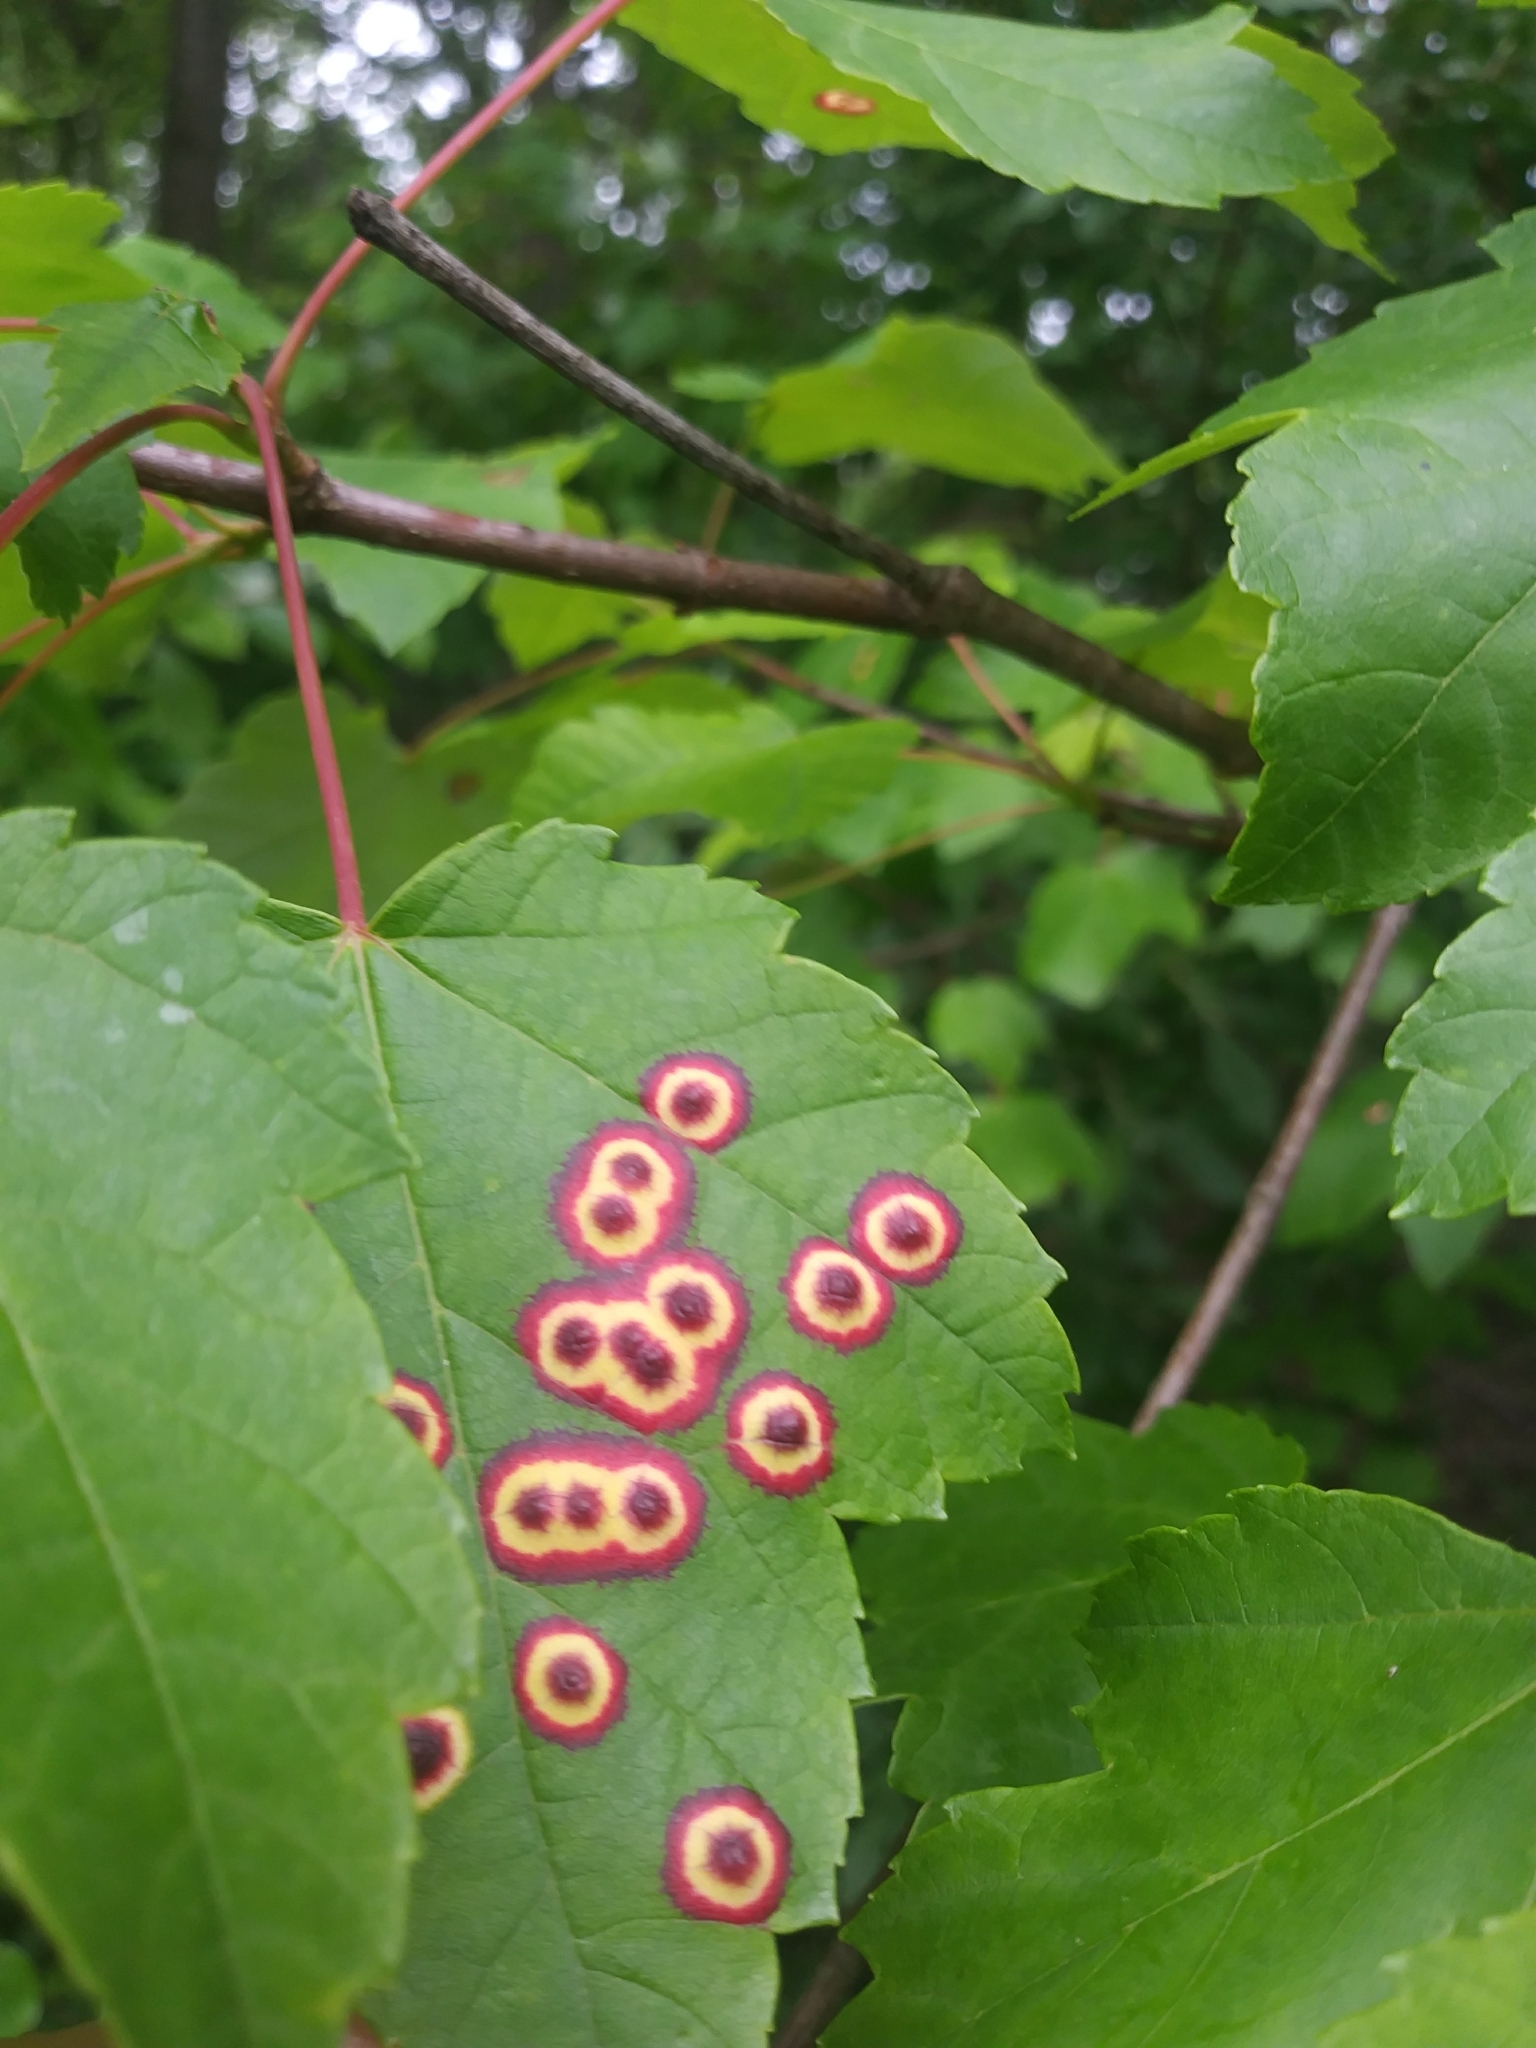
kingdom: Animalia
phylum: Arthropoda
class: Insecta
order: Diptera
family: Cecidomyiidae
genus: Acericecis
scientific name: Acericecis ocellaris
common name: Ocellate gall midge
